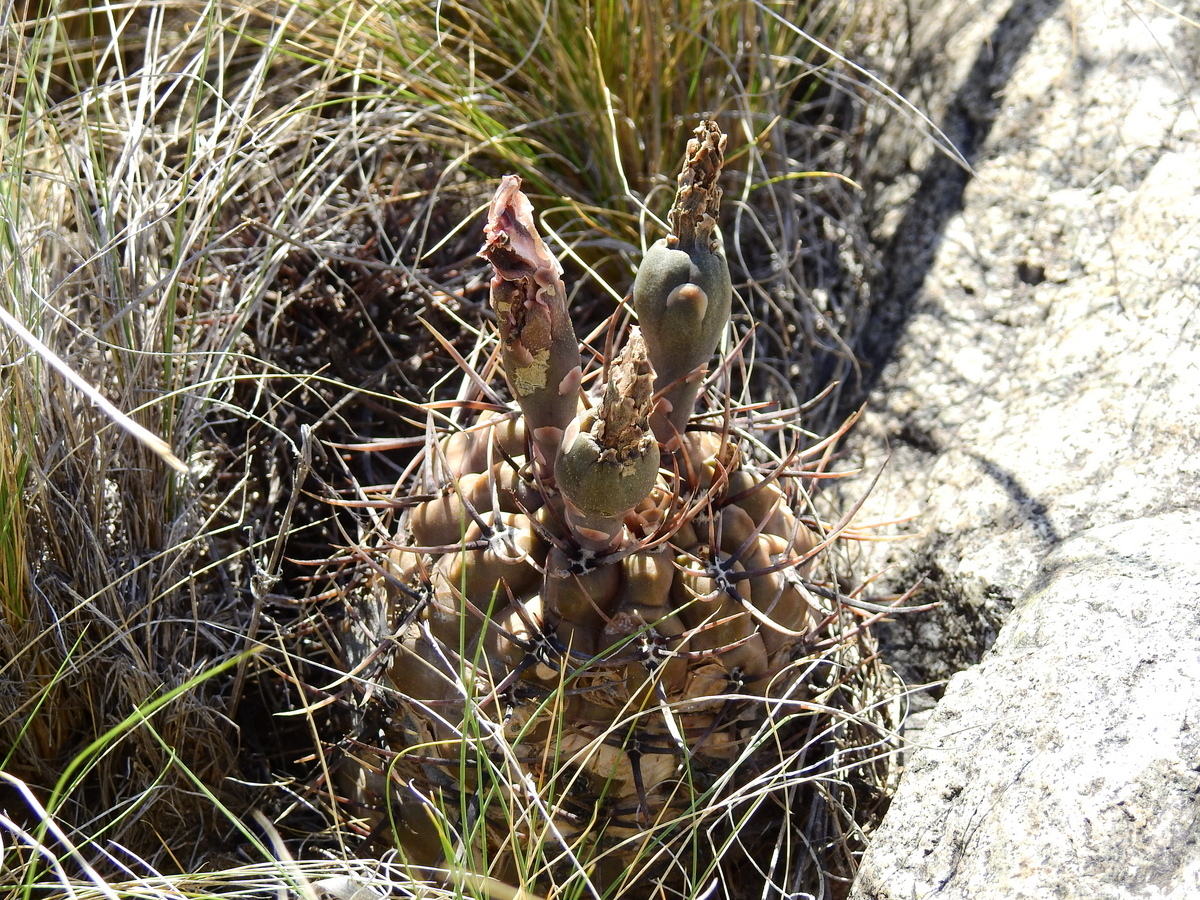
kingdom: Plantae
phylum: Tracheophyta
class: Magnoliopsida
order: Caryophyllales
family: Cactaceae
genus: Gymnocalycium
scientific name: Gymnocalycium striglianum
